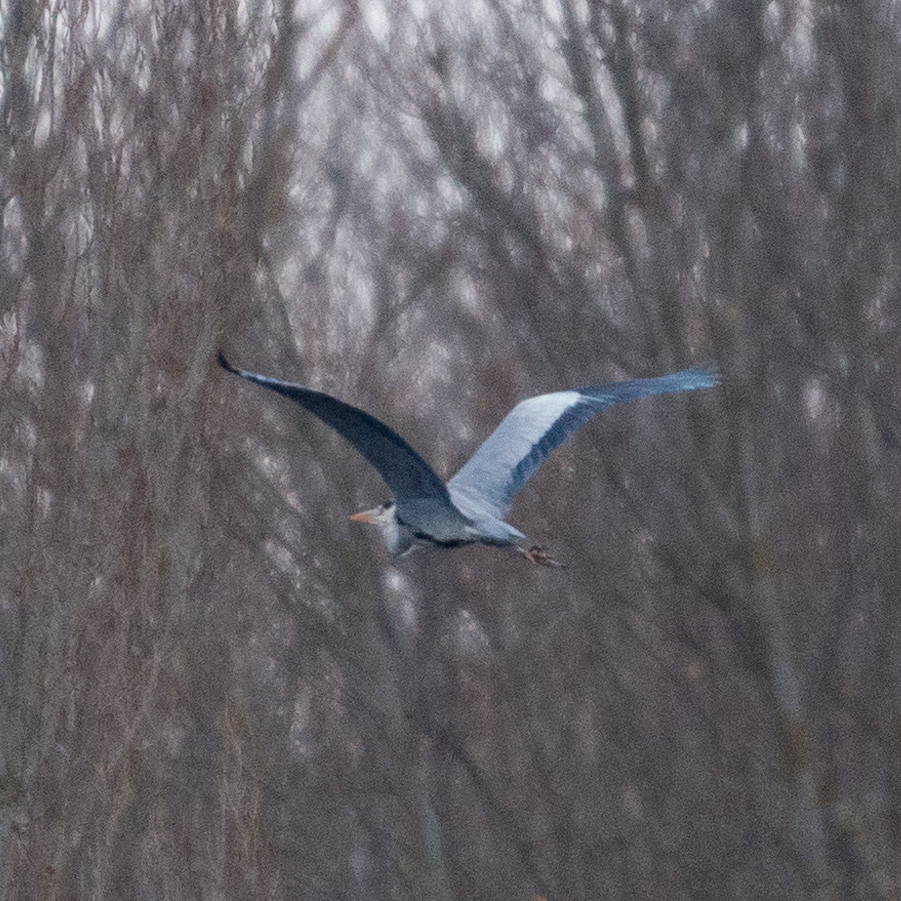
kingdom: Animalia
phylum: Chordata
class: Aves
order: Pelecaniformes
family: Ardeidae
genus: Ardea
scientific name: Ardea cinerea
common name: Grey heron
